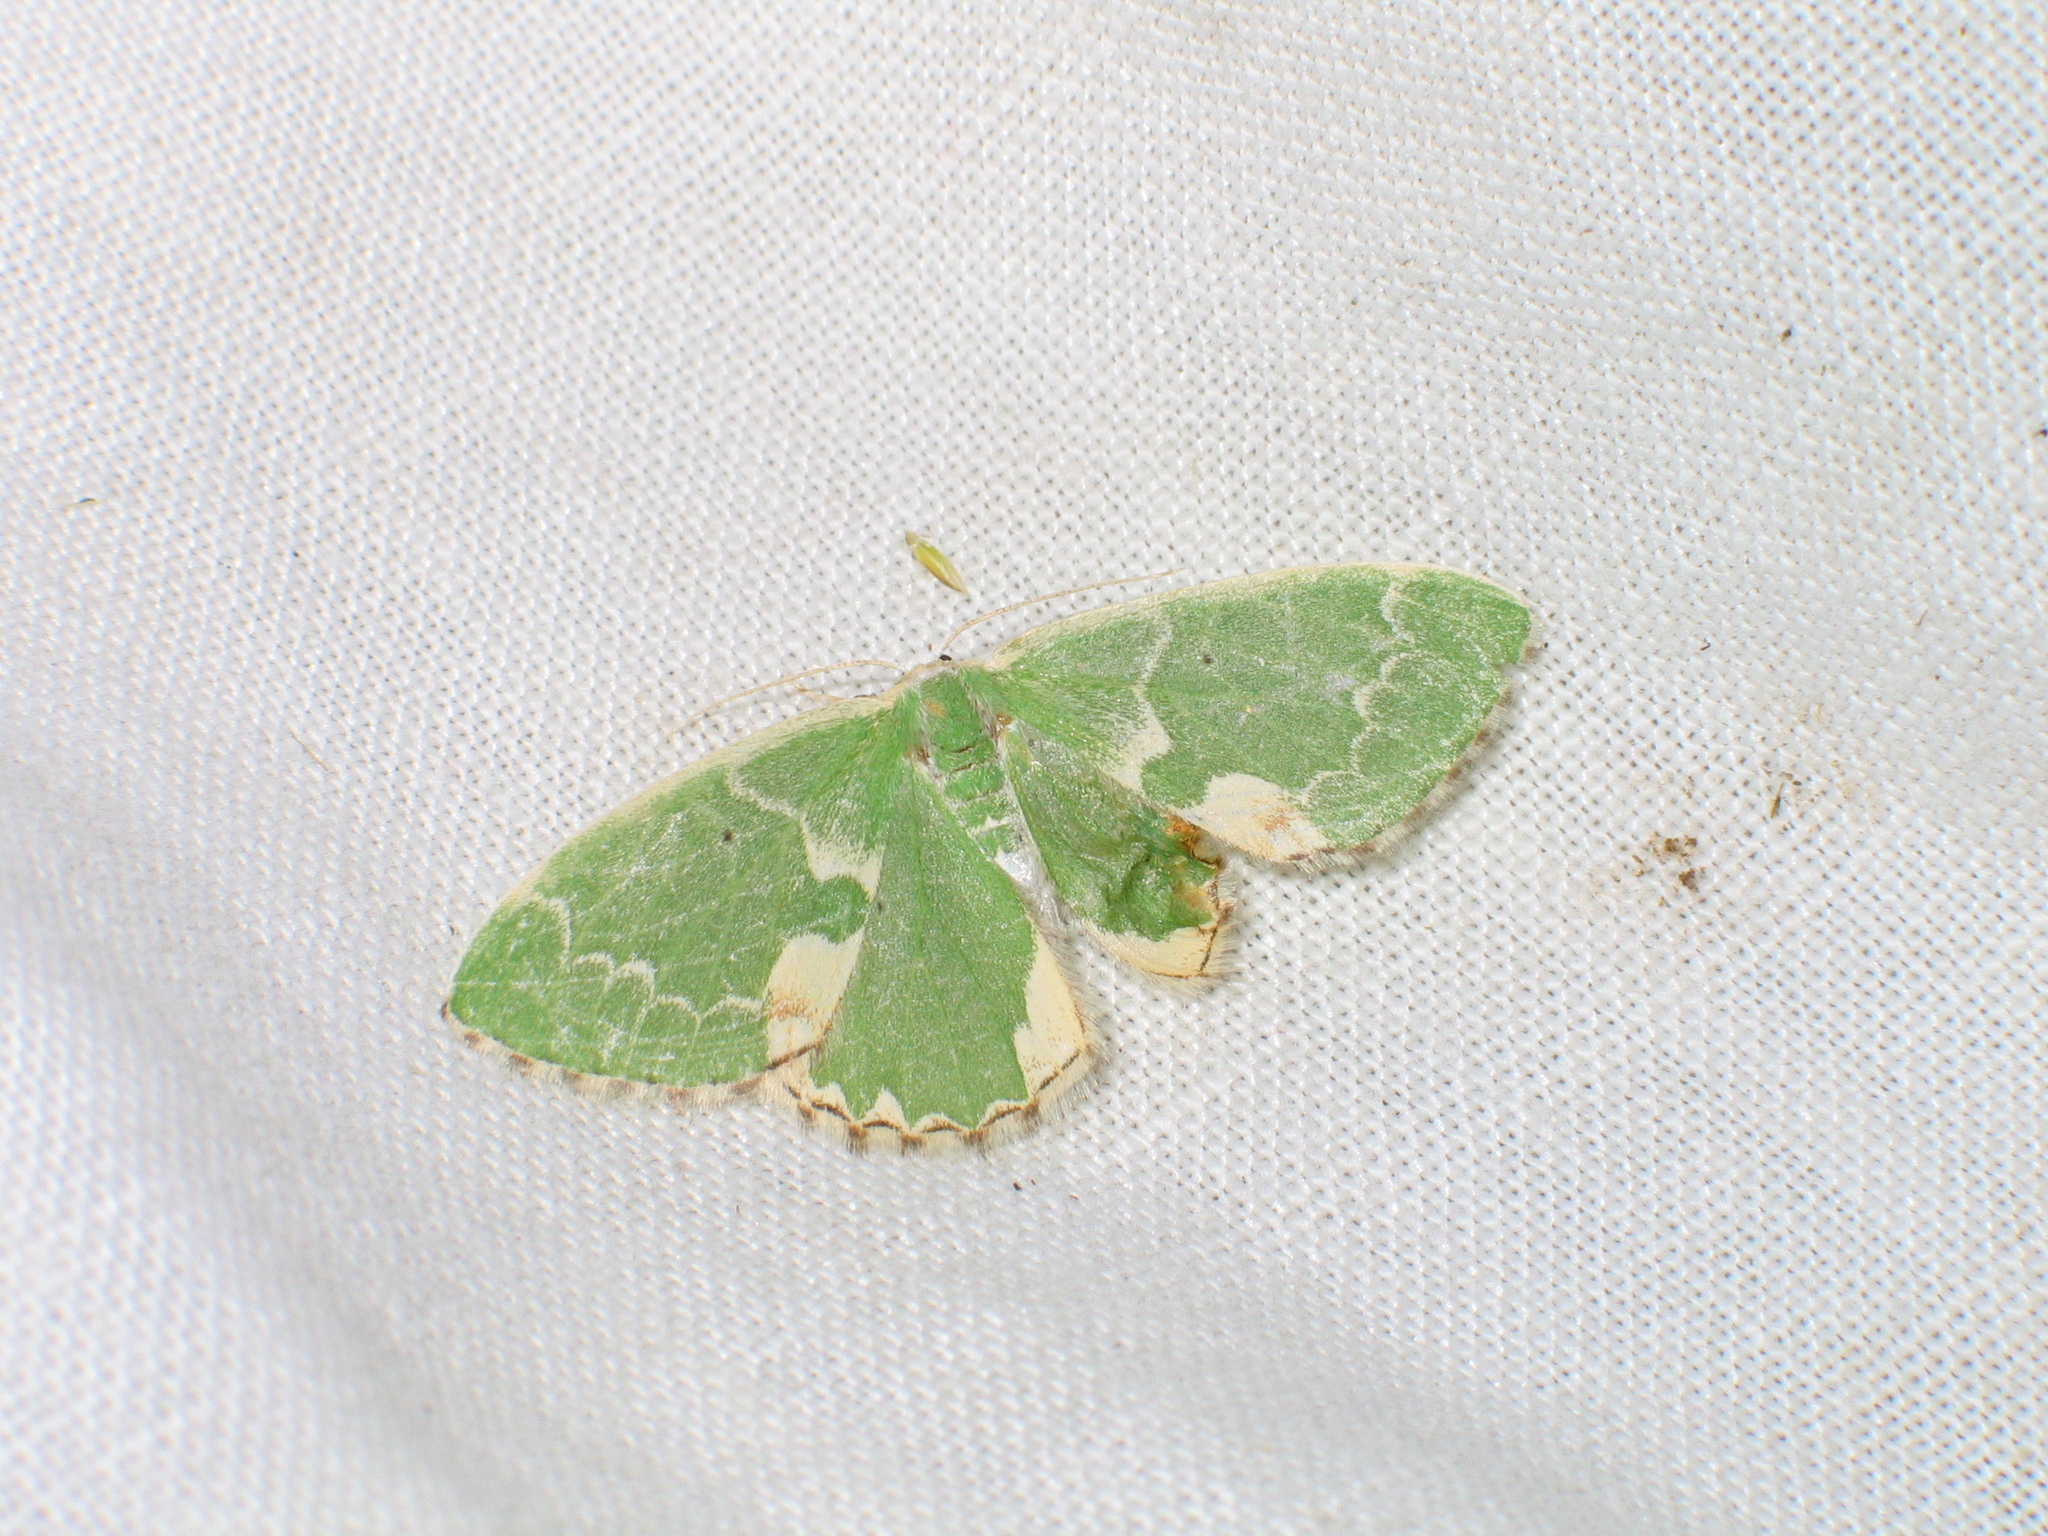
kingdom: Animalia
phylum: Arthropoda
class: Insecta
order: Lepidoptera
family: Geometridae
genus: Comibaena
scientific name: Comibaena bajularia
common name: Blotched emerald
